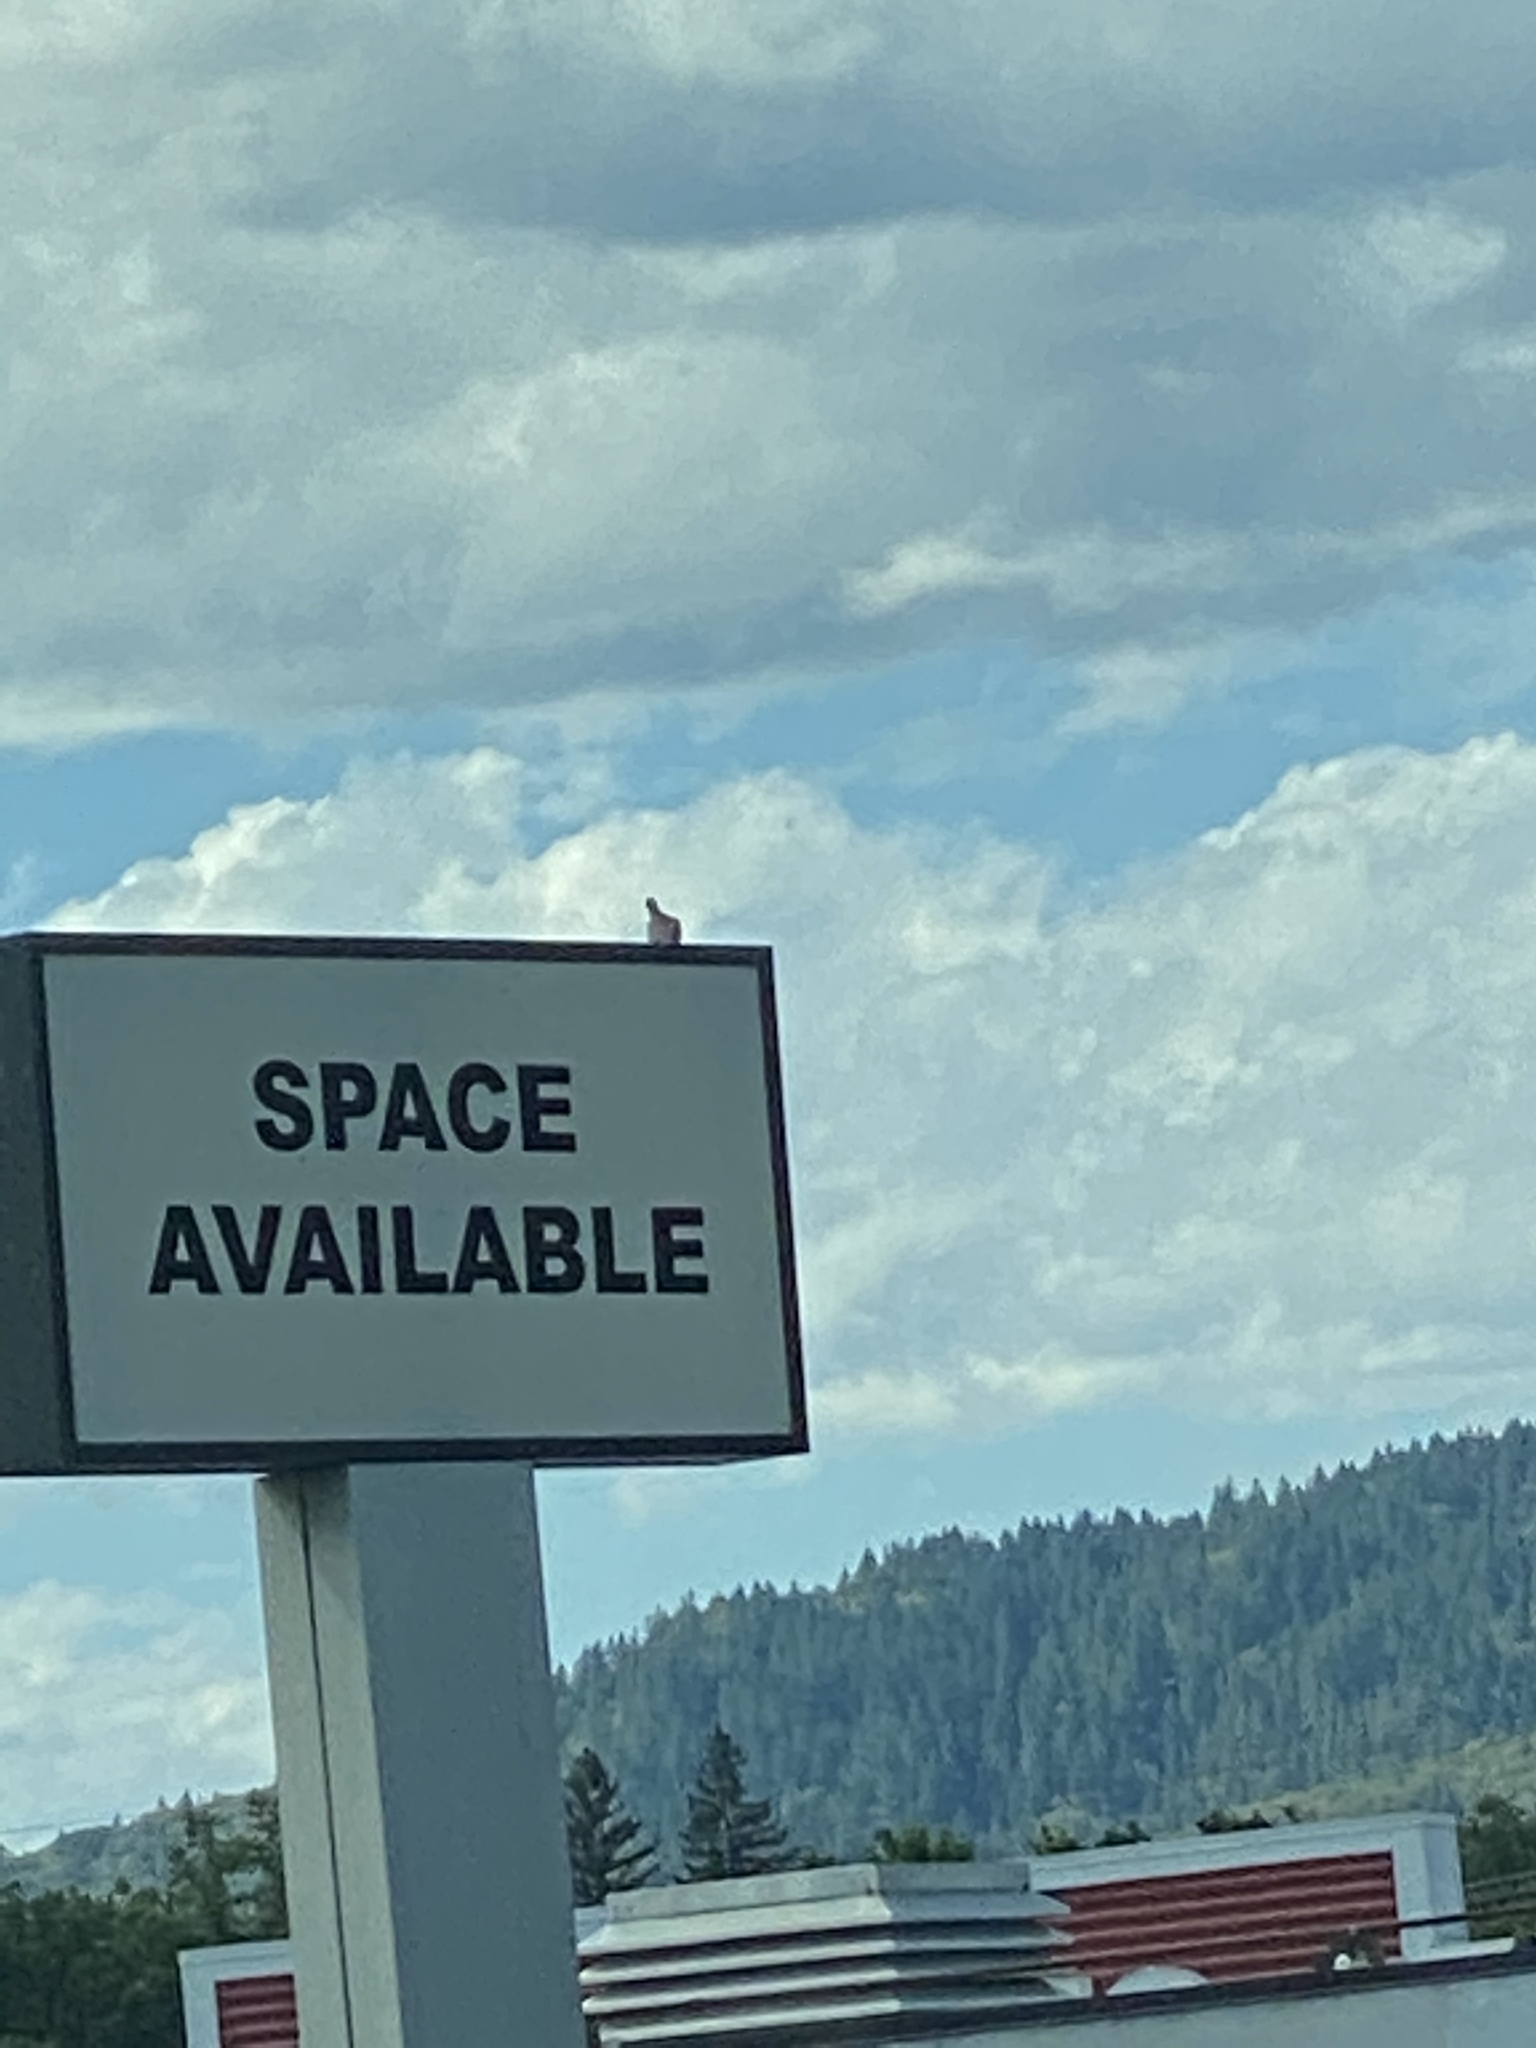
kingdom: Animalia
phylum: Chordata
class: Aves
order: Columbiformes
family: Columbidae
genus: Streptopelia
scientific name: Streptopelia decaocto
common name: Eurasian collared dove
